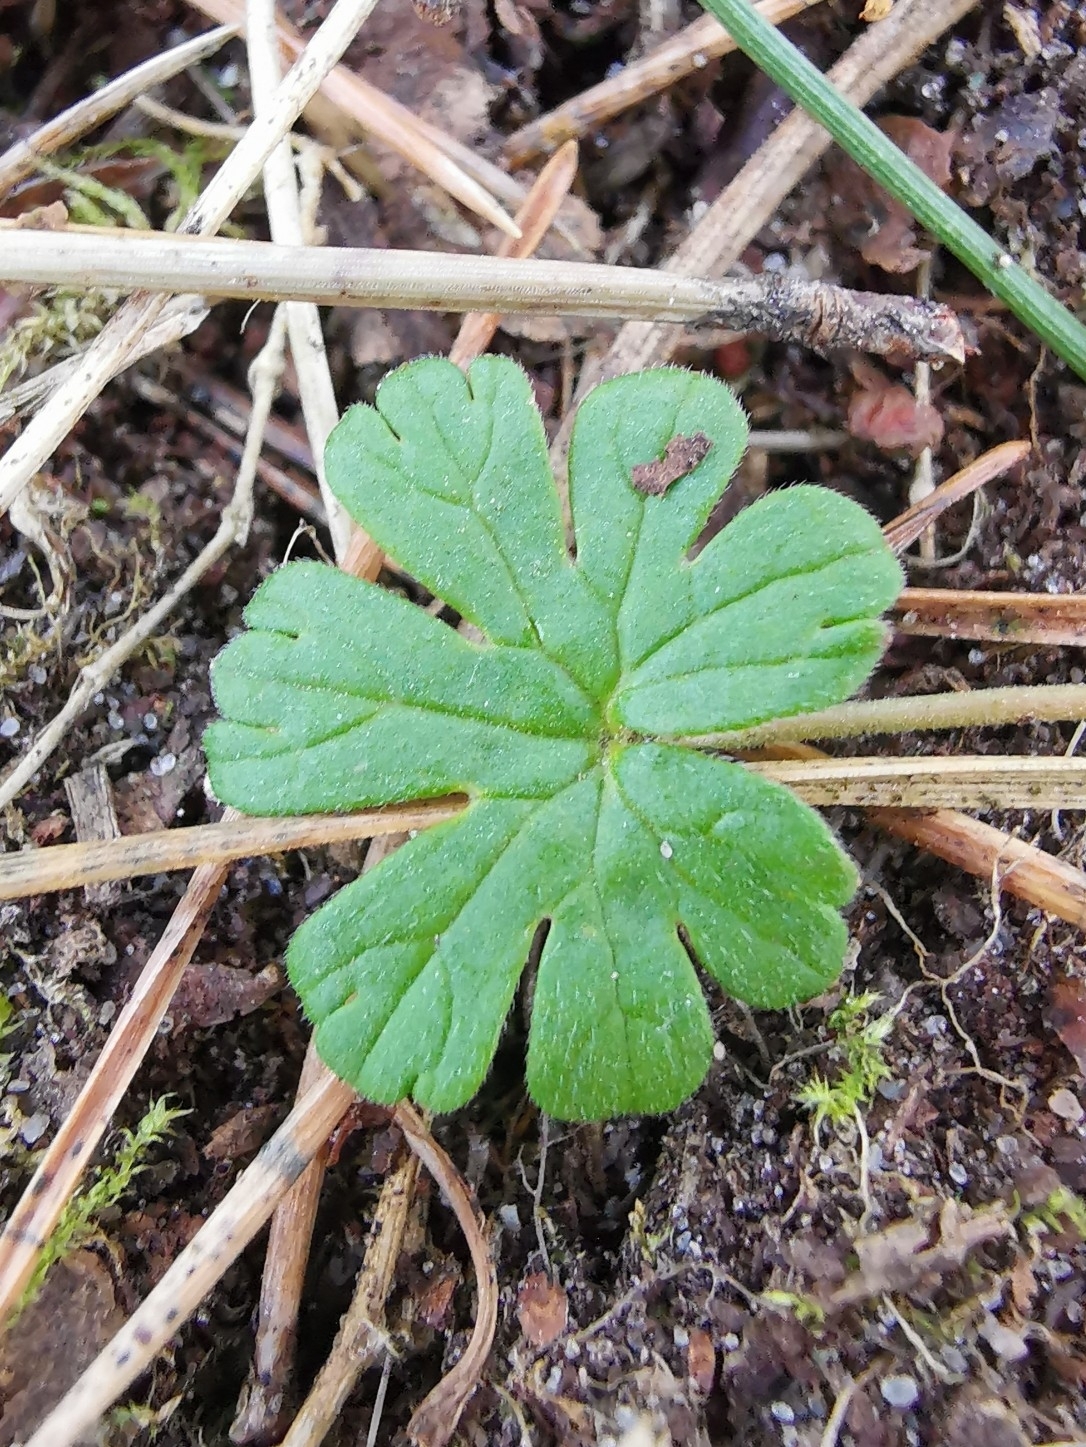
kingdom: Plantae
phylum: Tracheophyta
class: Magnoliopsida
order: Geraniales
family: Geraniaceae
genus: Geranium
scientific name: Geranium molle
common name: Dove's-foot crane's-bill
